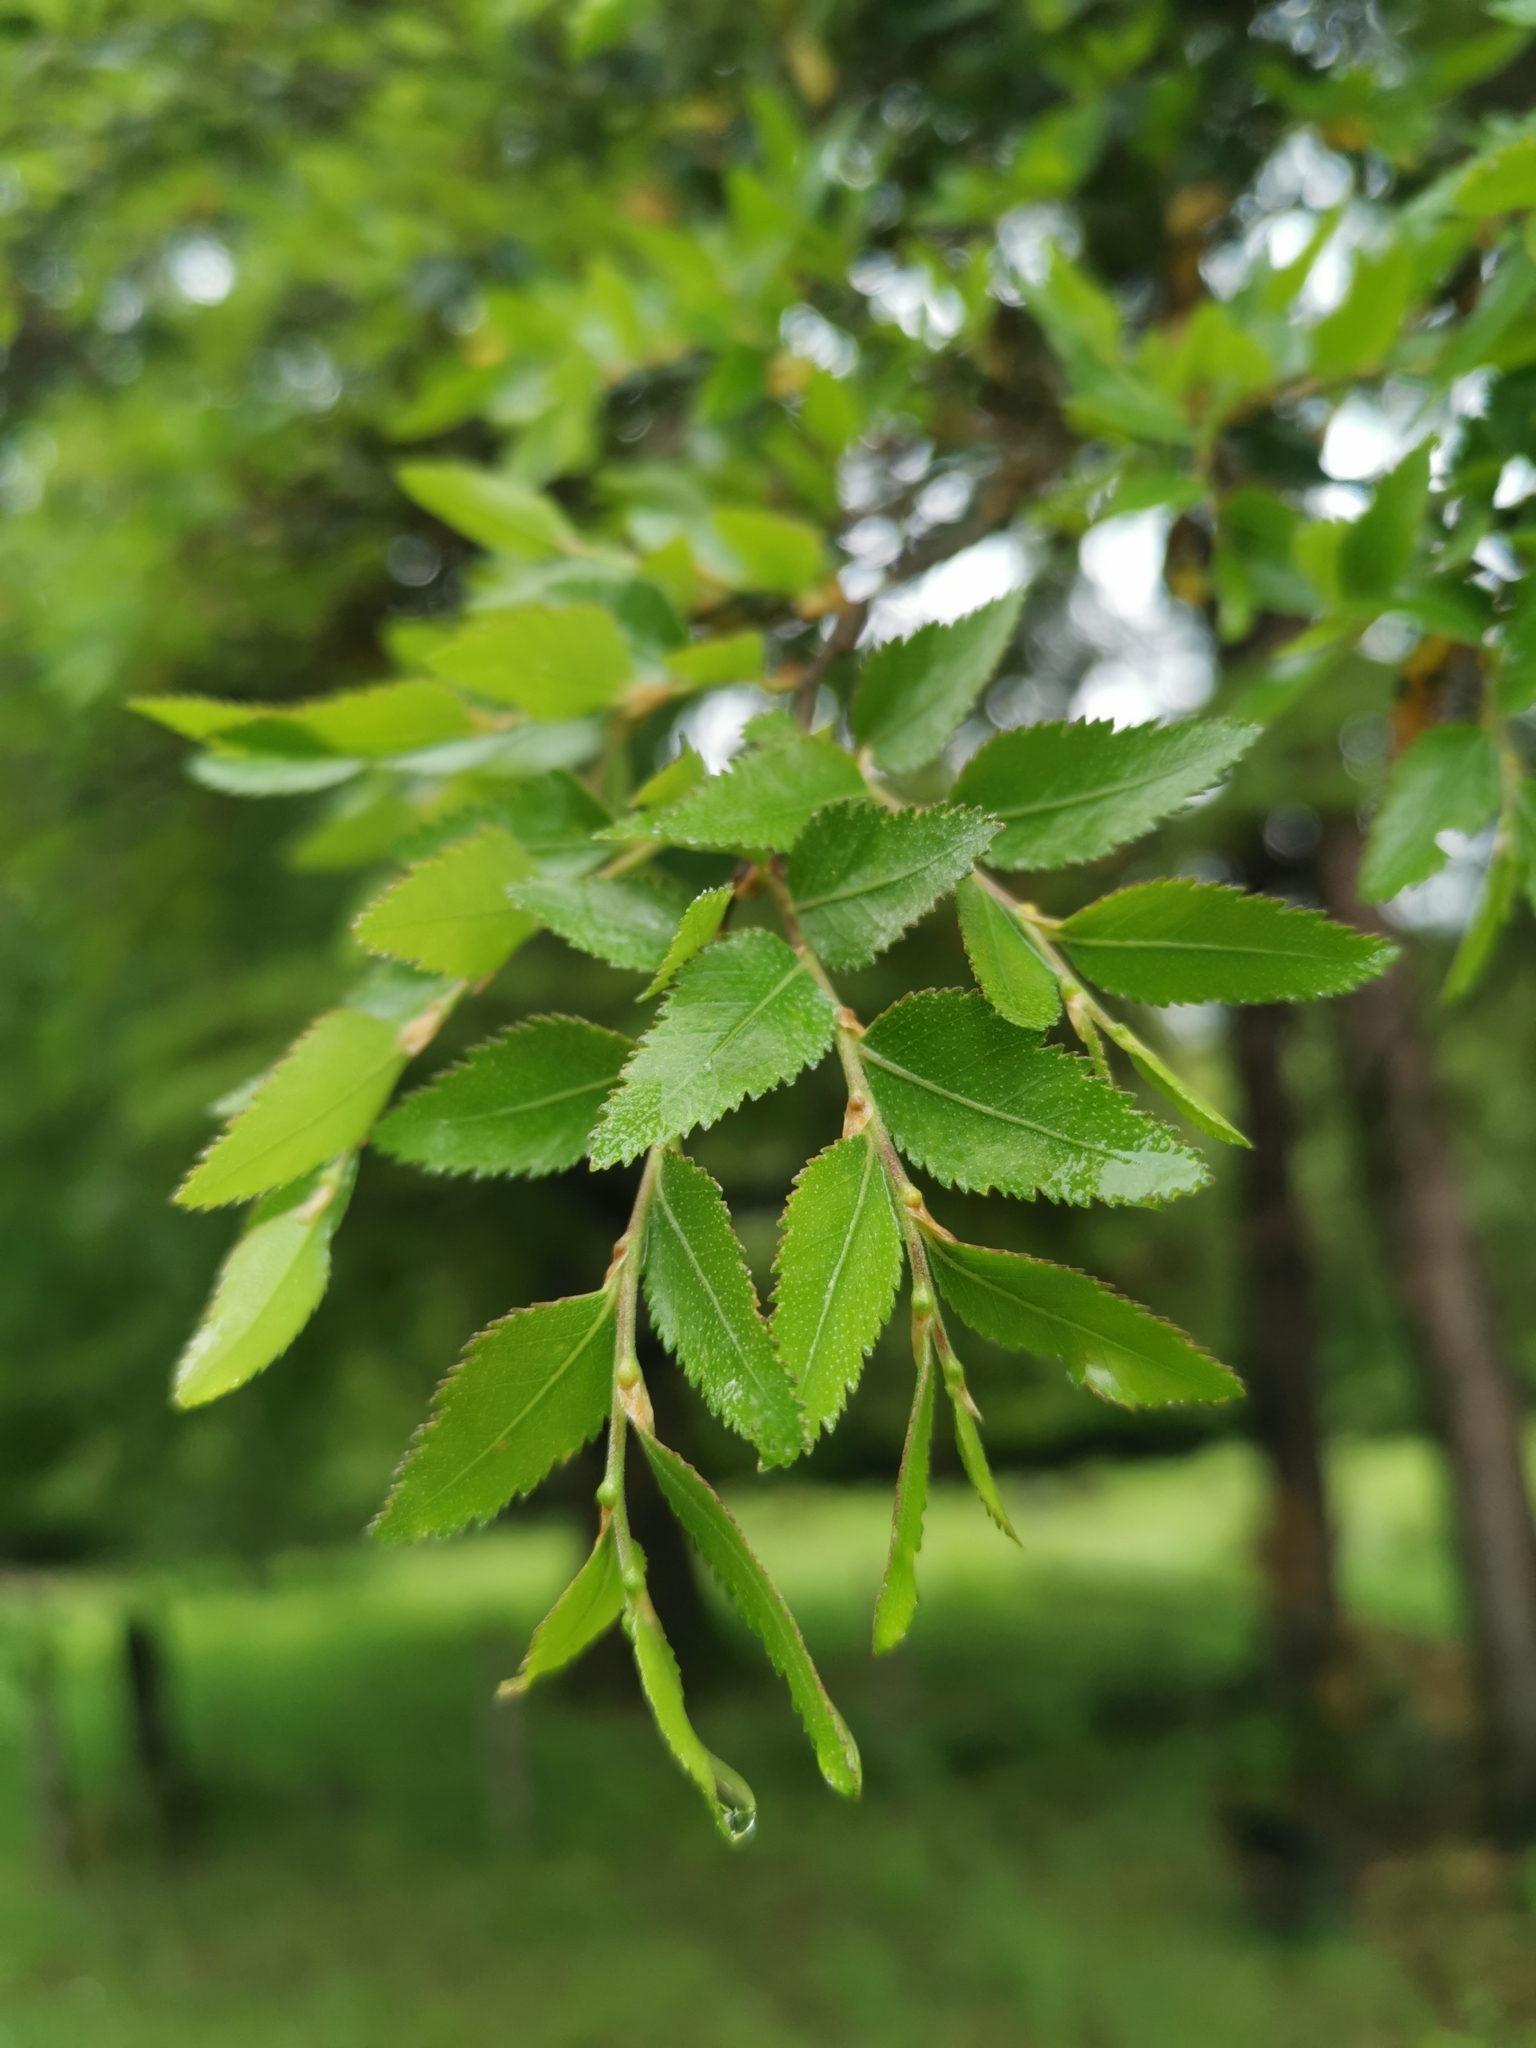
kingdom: Plantae
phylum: Tracheophyta
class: Magnoliopsida
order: Fagales
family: Nothofagaceae
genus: Nothofagus
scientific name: Nothofagus dombeyi
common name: Coigue
